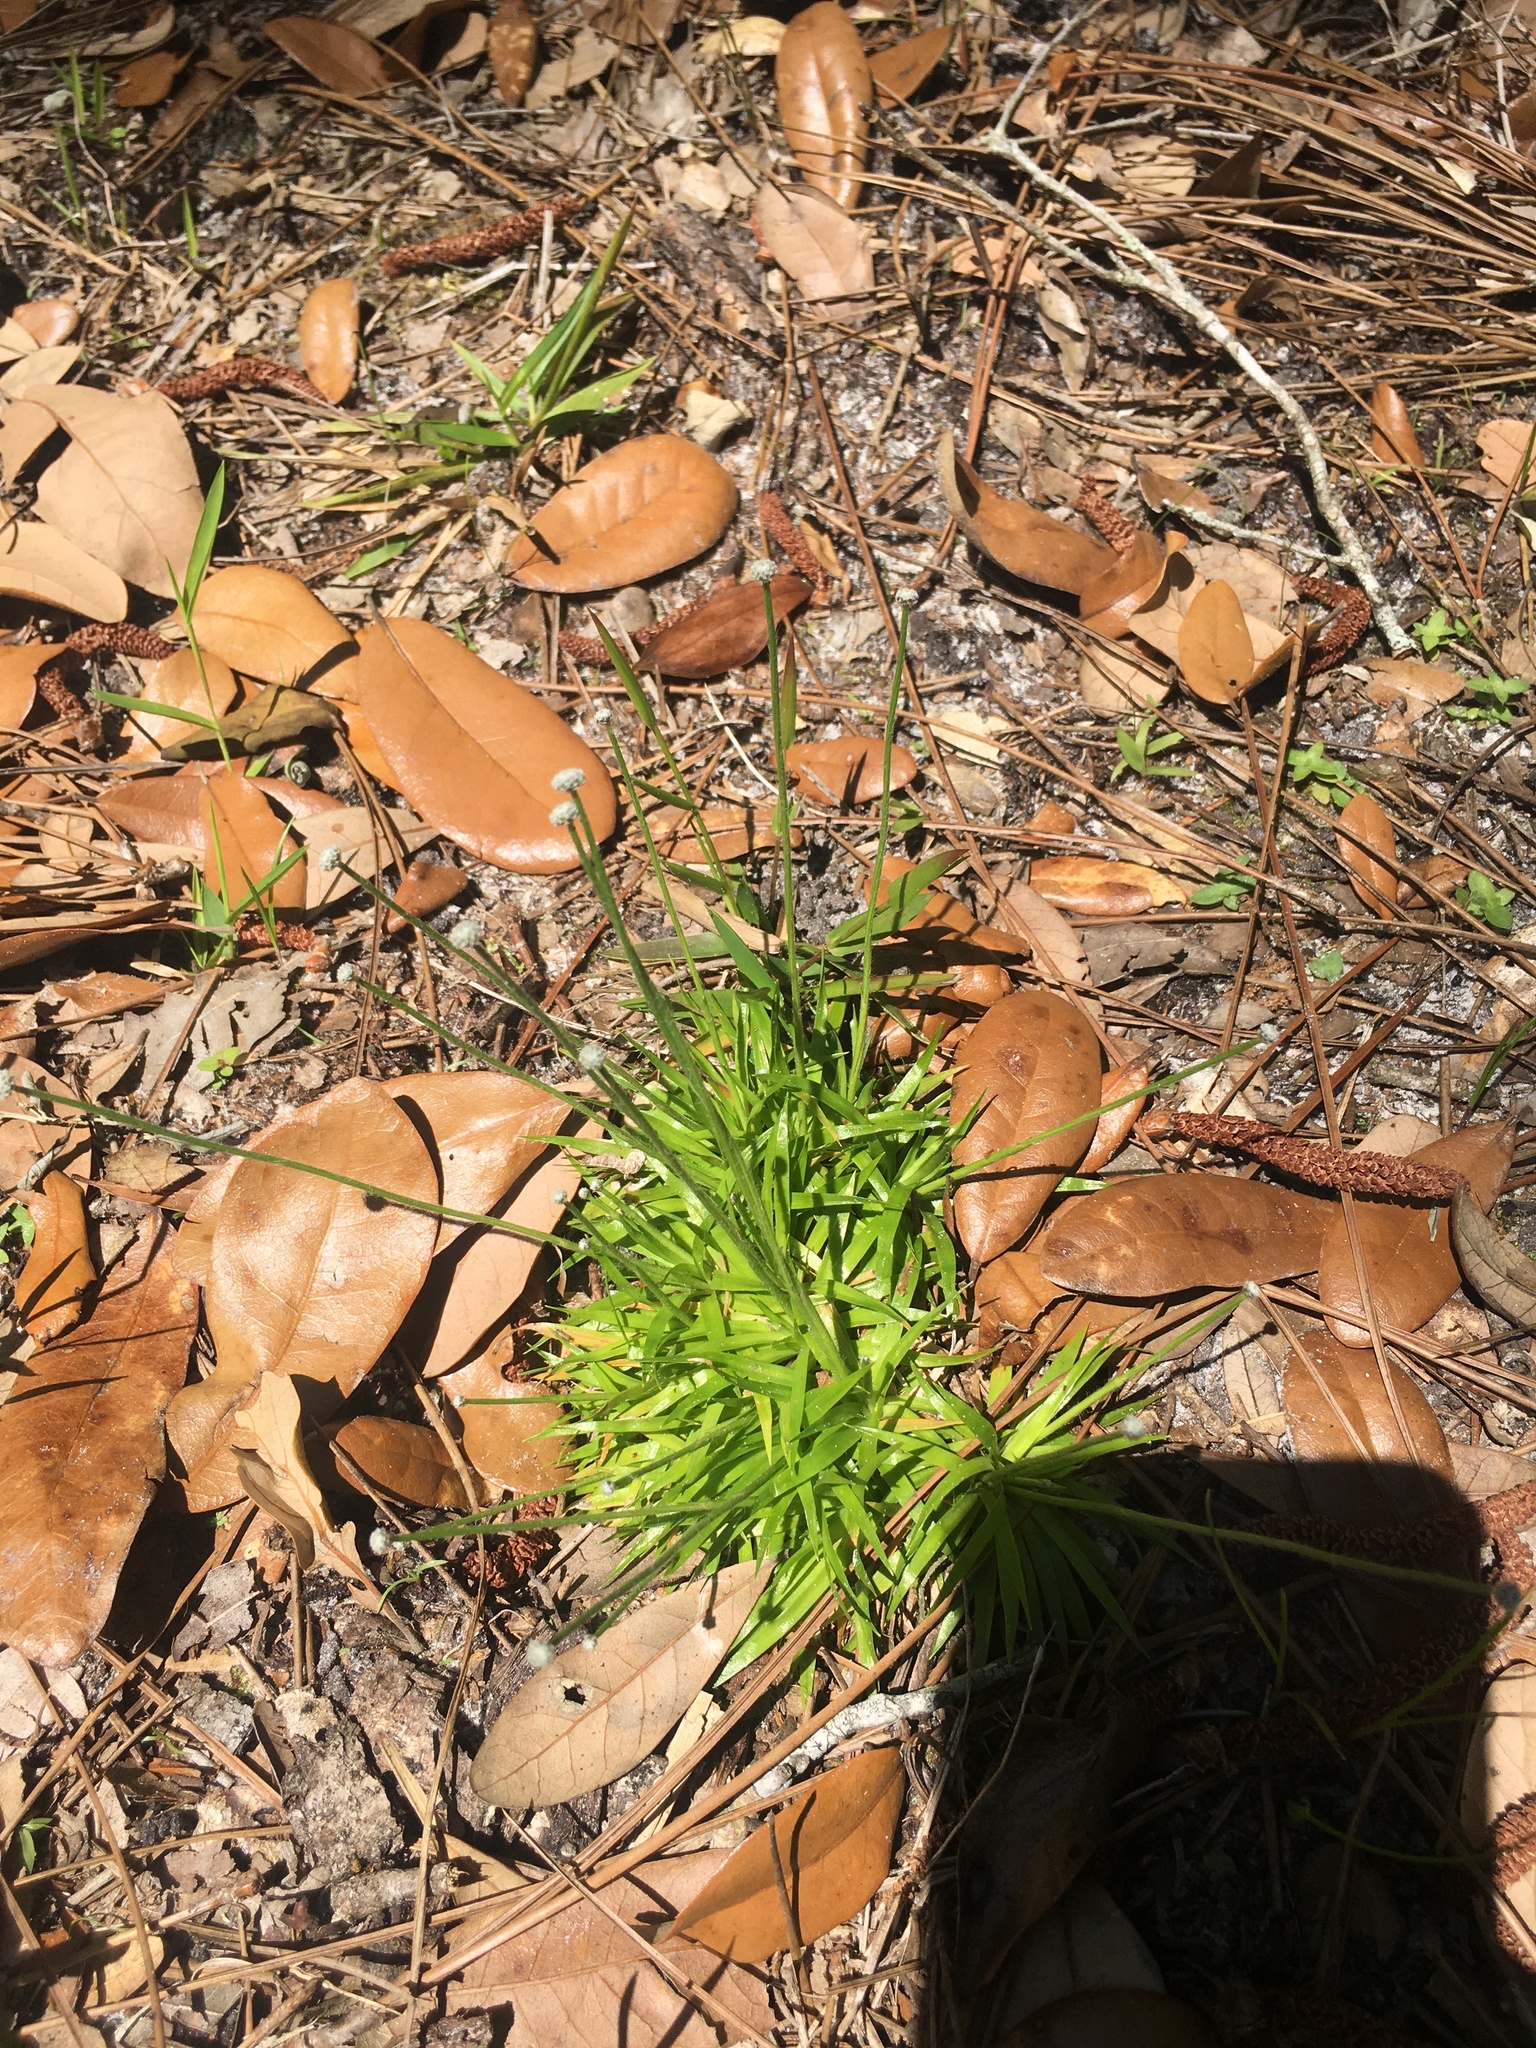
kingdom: Plantae
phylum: Tracheophyta
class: Liliopsida
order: Poales
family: Eriocaulaceae
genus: Paepalanthus
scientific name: Paepalanthus anceps
